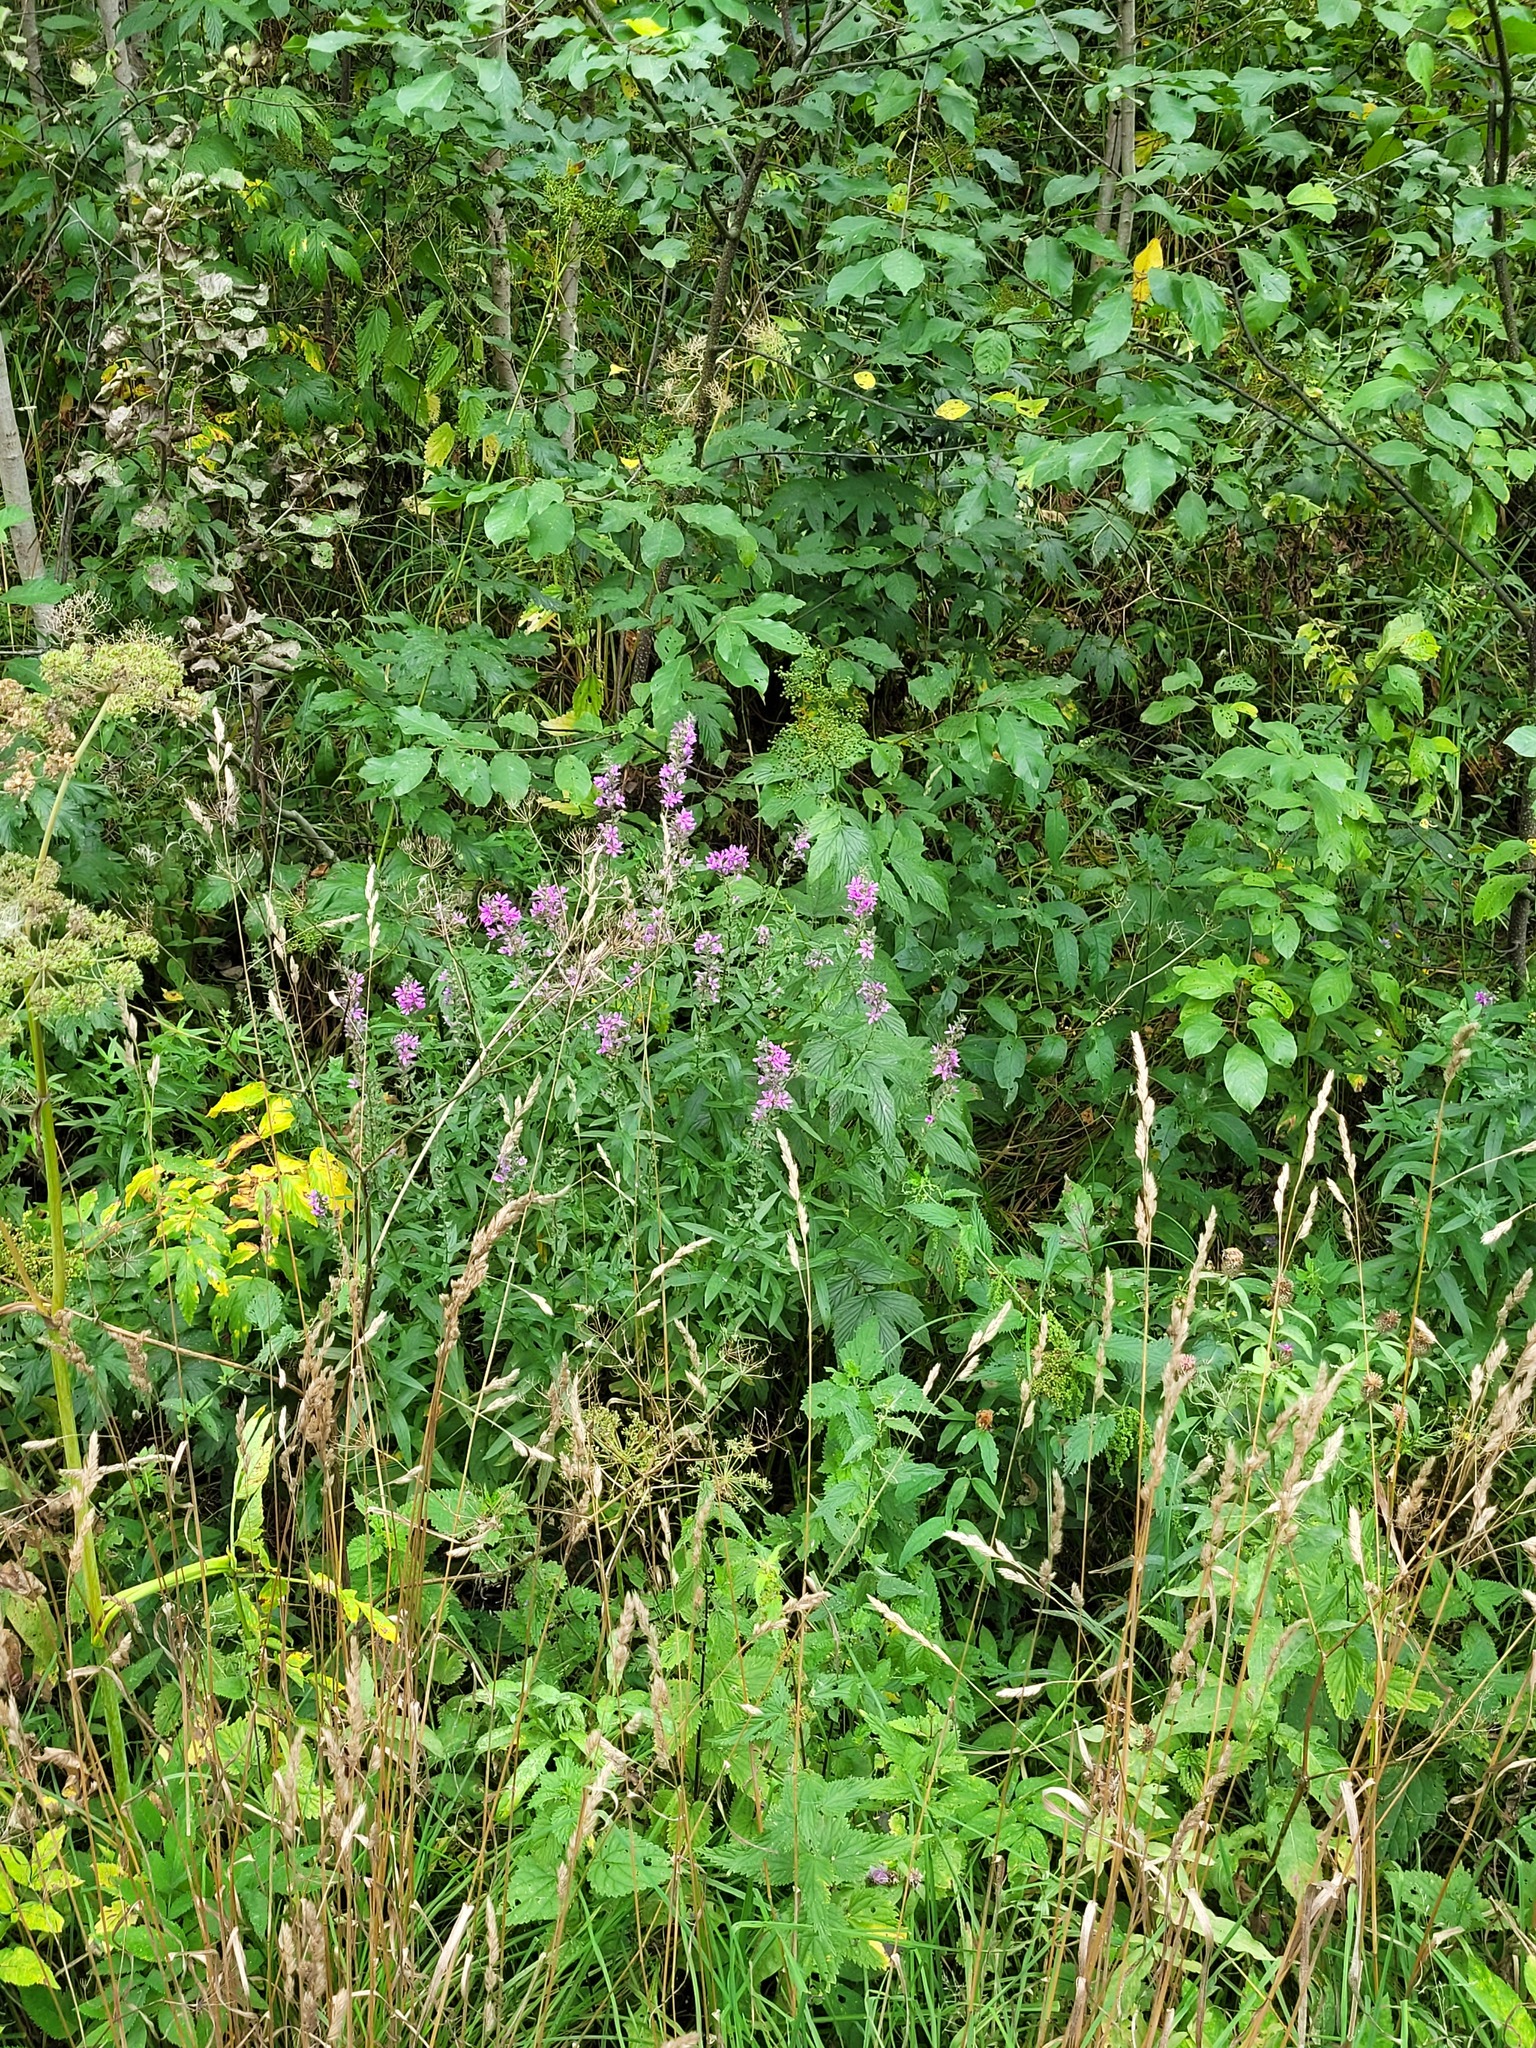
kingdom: Plantae
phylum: Tracheophyta
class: Magnoliopsida
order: Myrtales
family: Lythraceae
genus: Lythrum
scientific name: Lythrum salicaria
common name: Purple loosestrife
